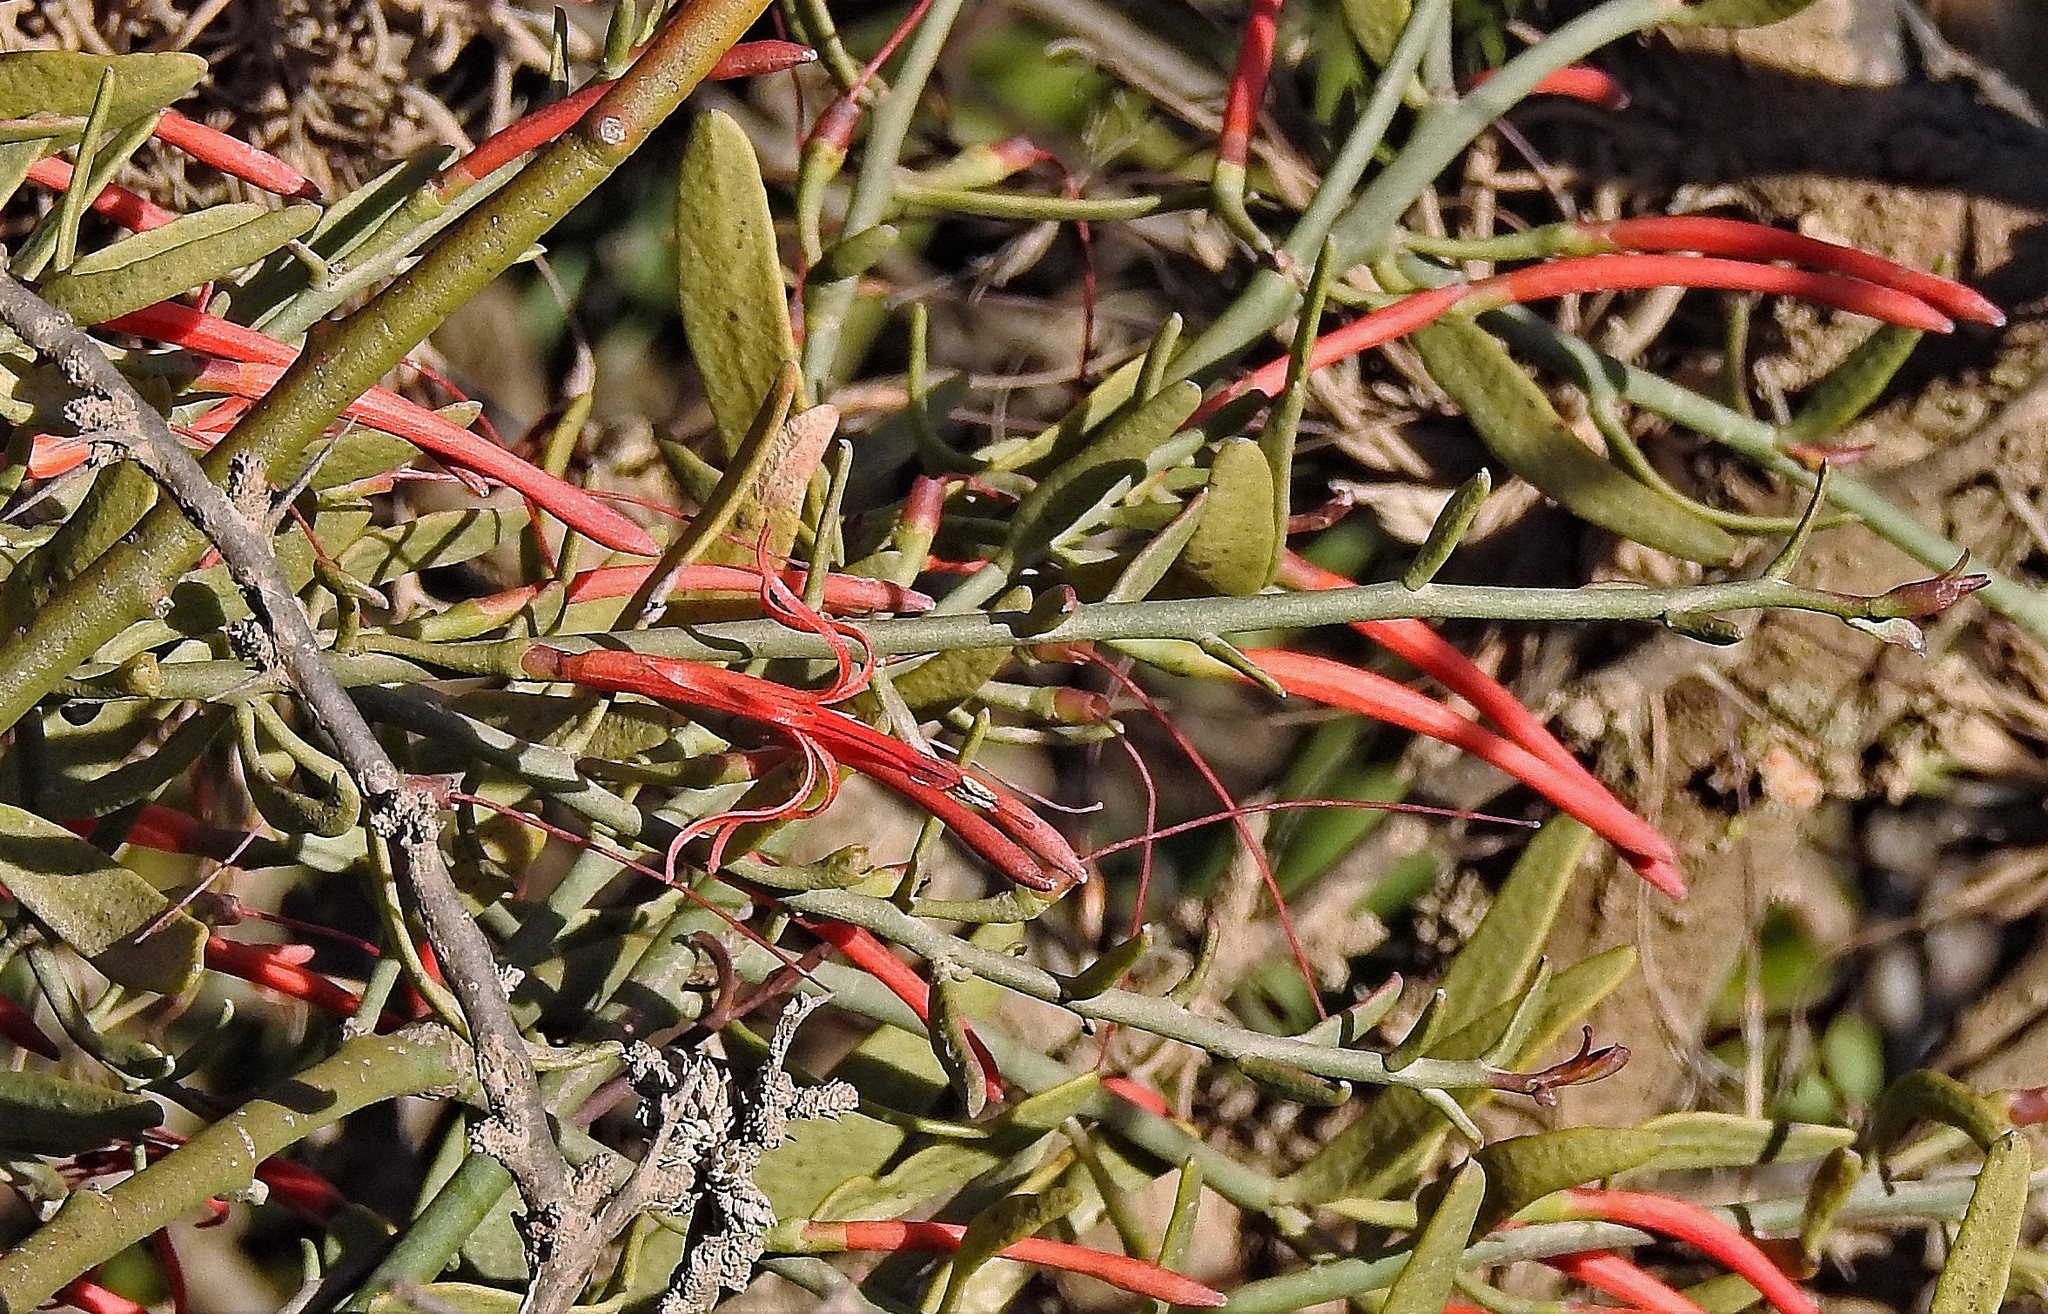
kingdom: Plantae
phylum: Tracheophyta
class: Magnoliopsida
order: Santalales
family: Loranthaceae
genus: Ligaria
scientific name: Ligaria cuneifolia
